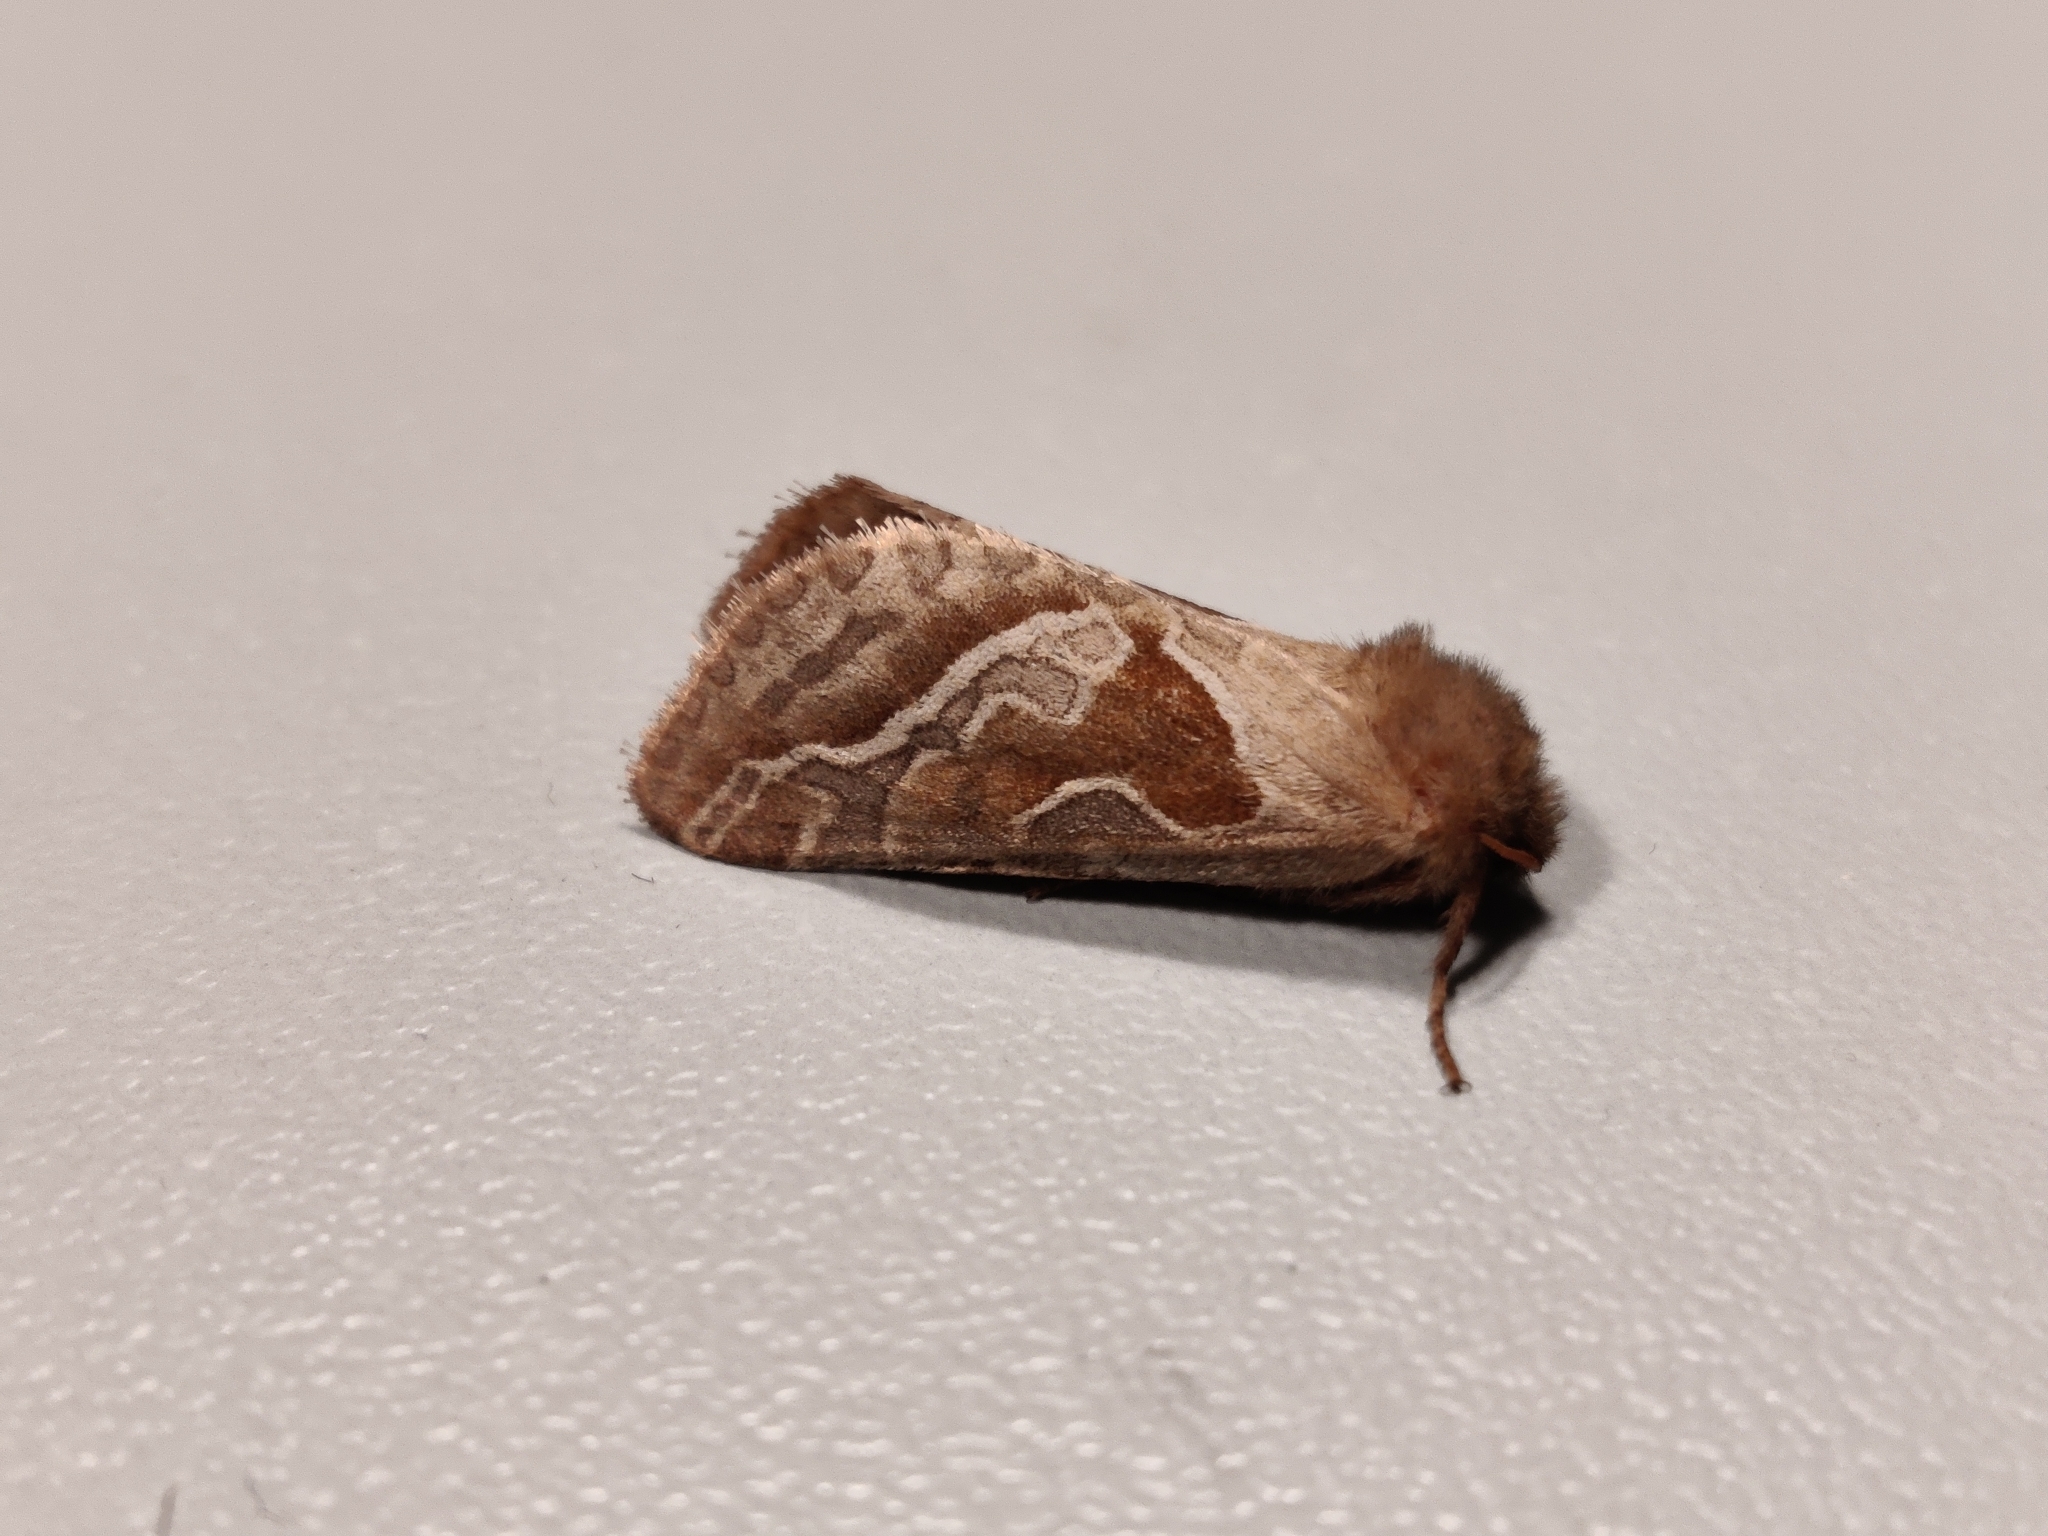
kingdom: Animalia
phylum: Arthropoda
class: Insecta
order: Lepidoptera
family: Hepialidae
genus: Triodia
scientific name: Triodia sylvina
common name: Orange swift
